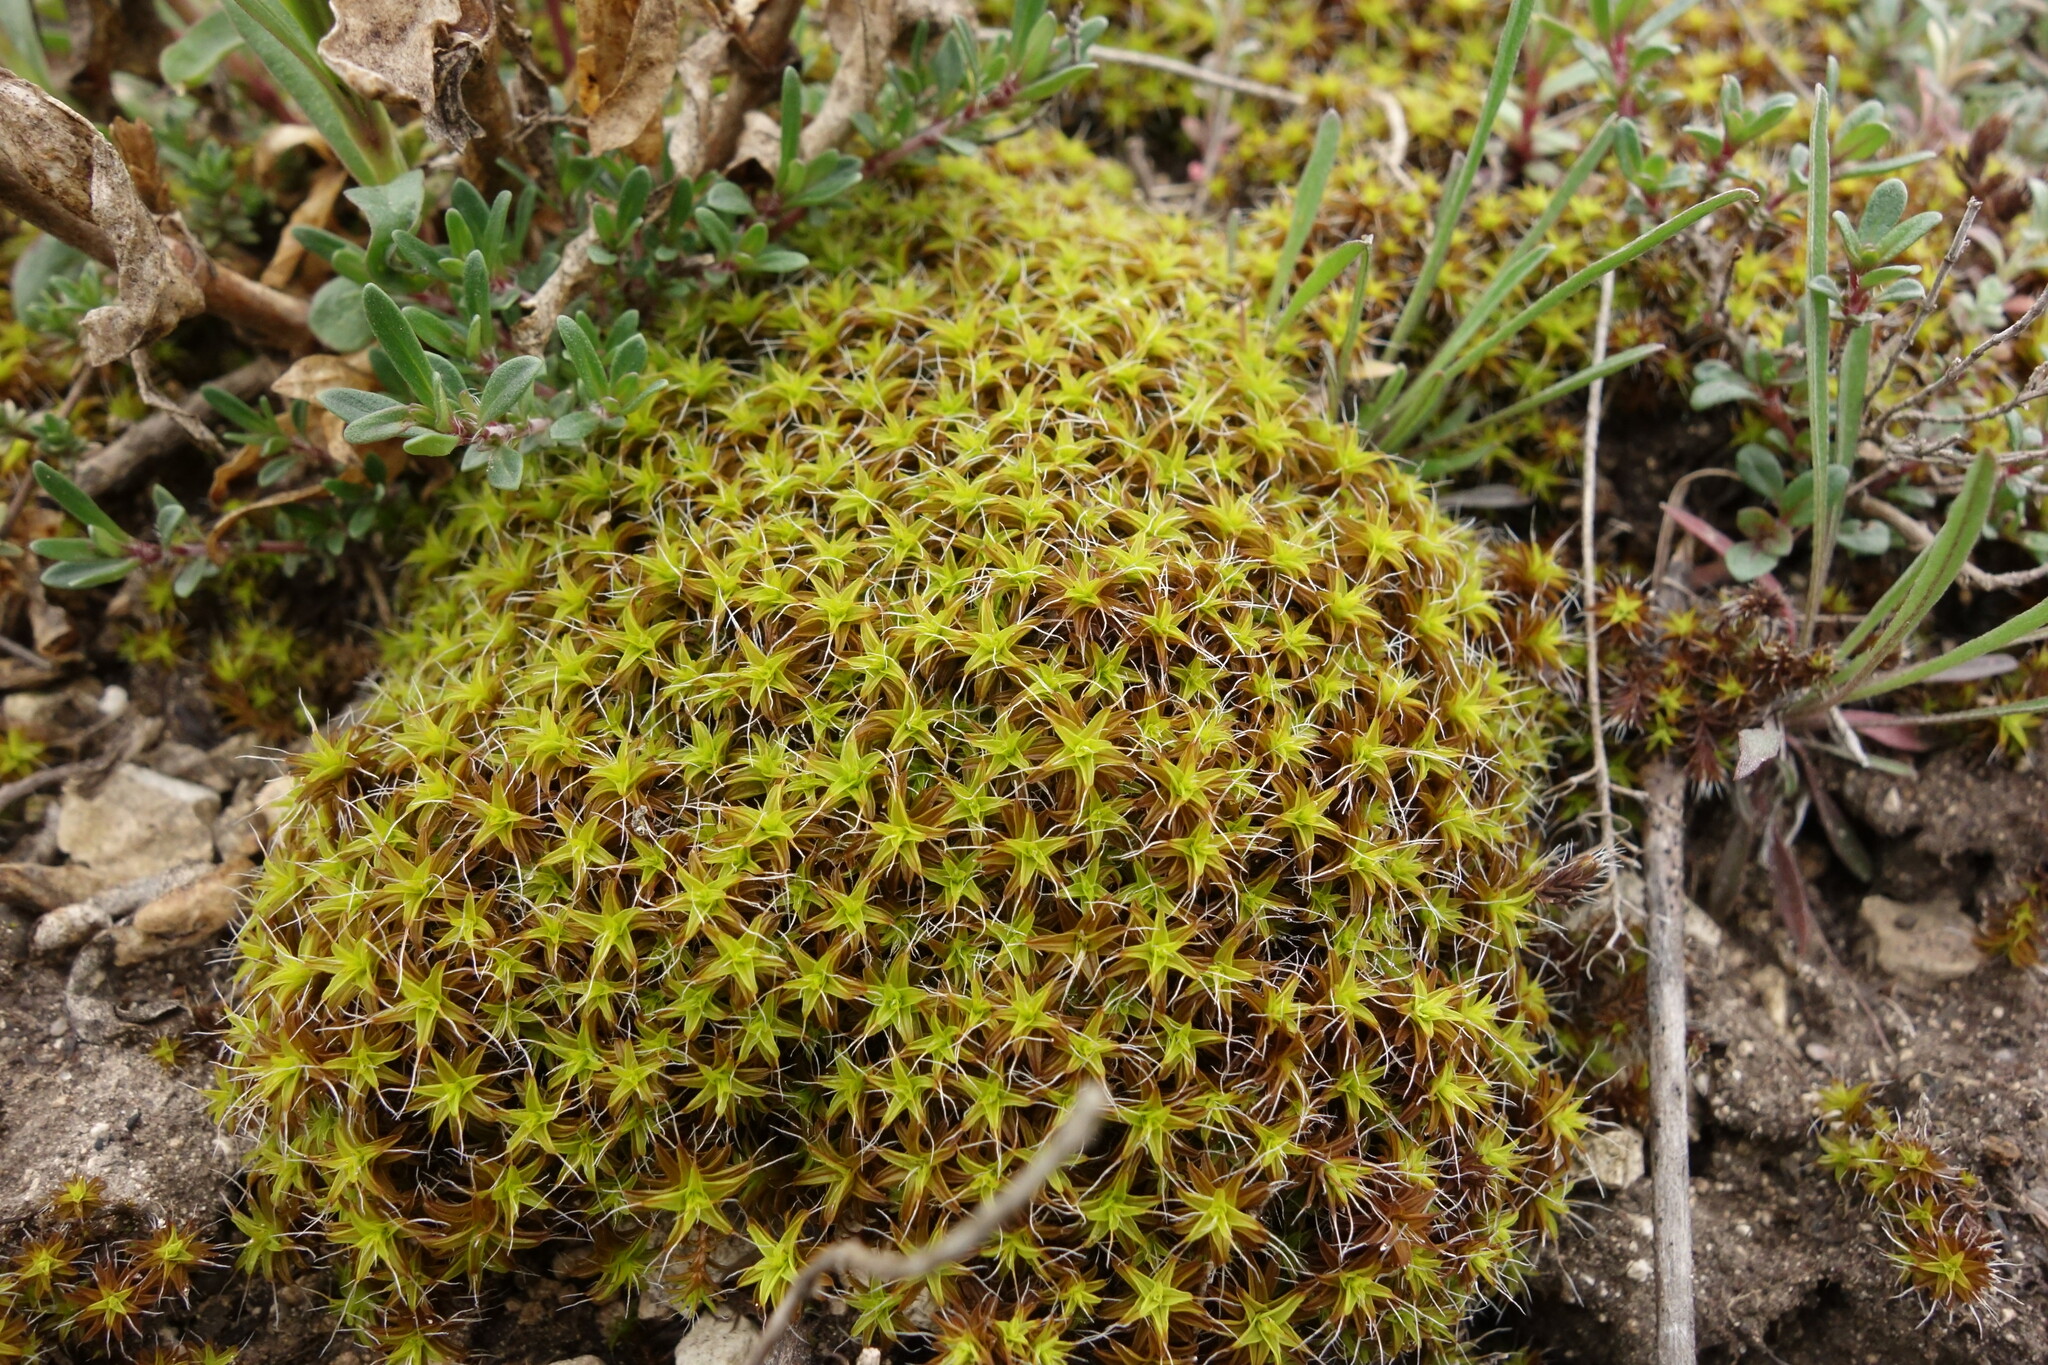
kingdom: Plantae
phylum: Bryophyta
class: Bryopsida
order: Pottiales
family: Pottiaceae
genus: Syntrichia
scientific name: Syntrichia ruralis
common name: Sidewalk screw moss
